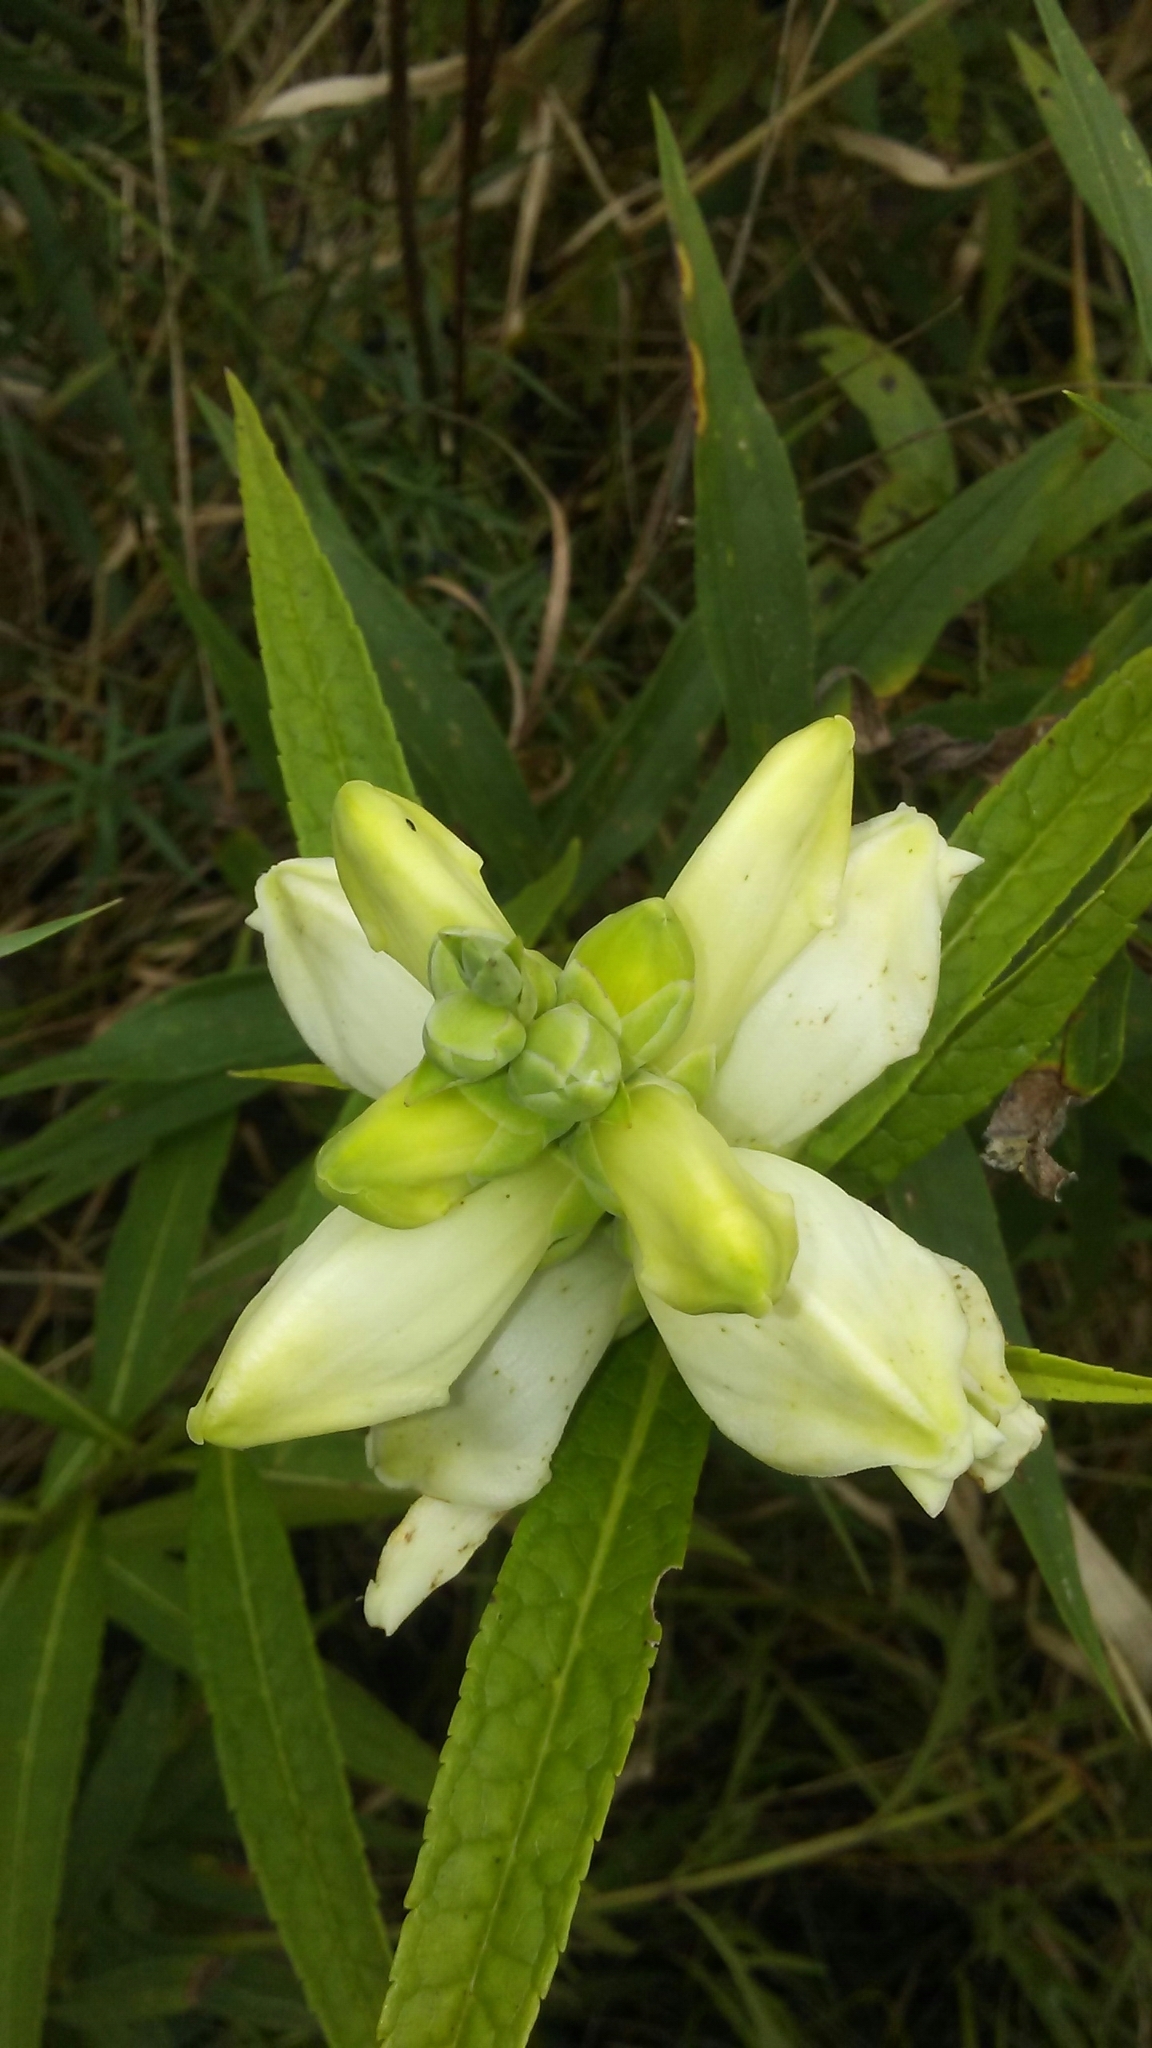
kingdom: Plantae
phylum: Tracheophyta
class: Magnoliopsida
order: Lamiales
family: Plantaginaceae
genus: Chelone
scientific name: Chelone glabra
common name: Snakehead
